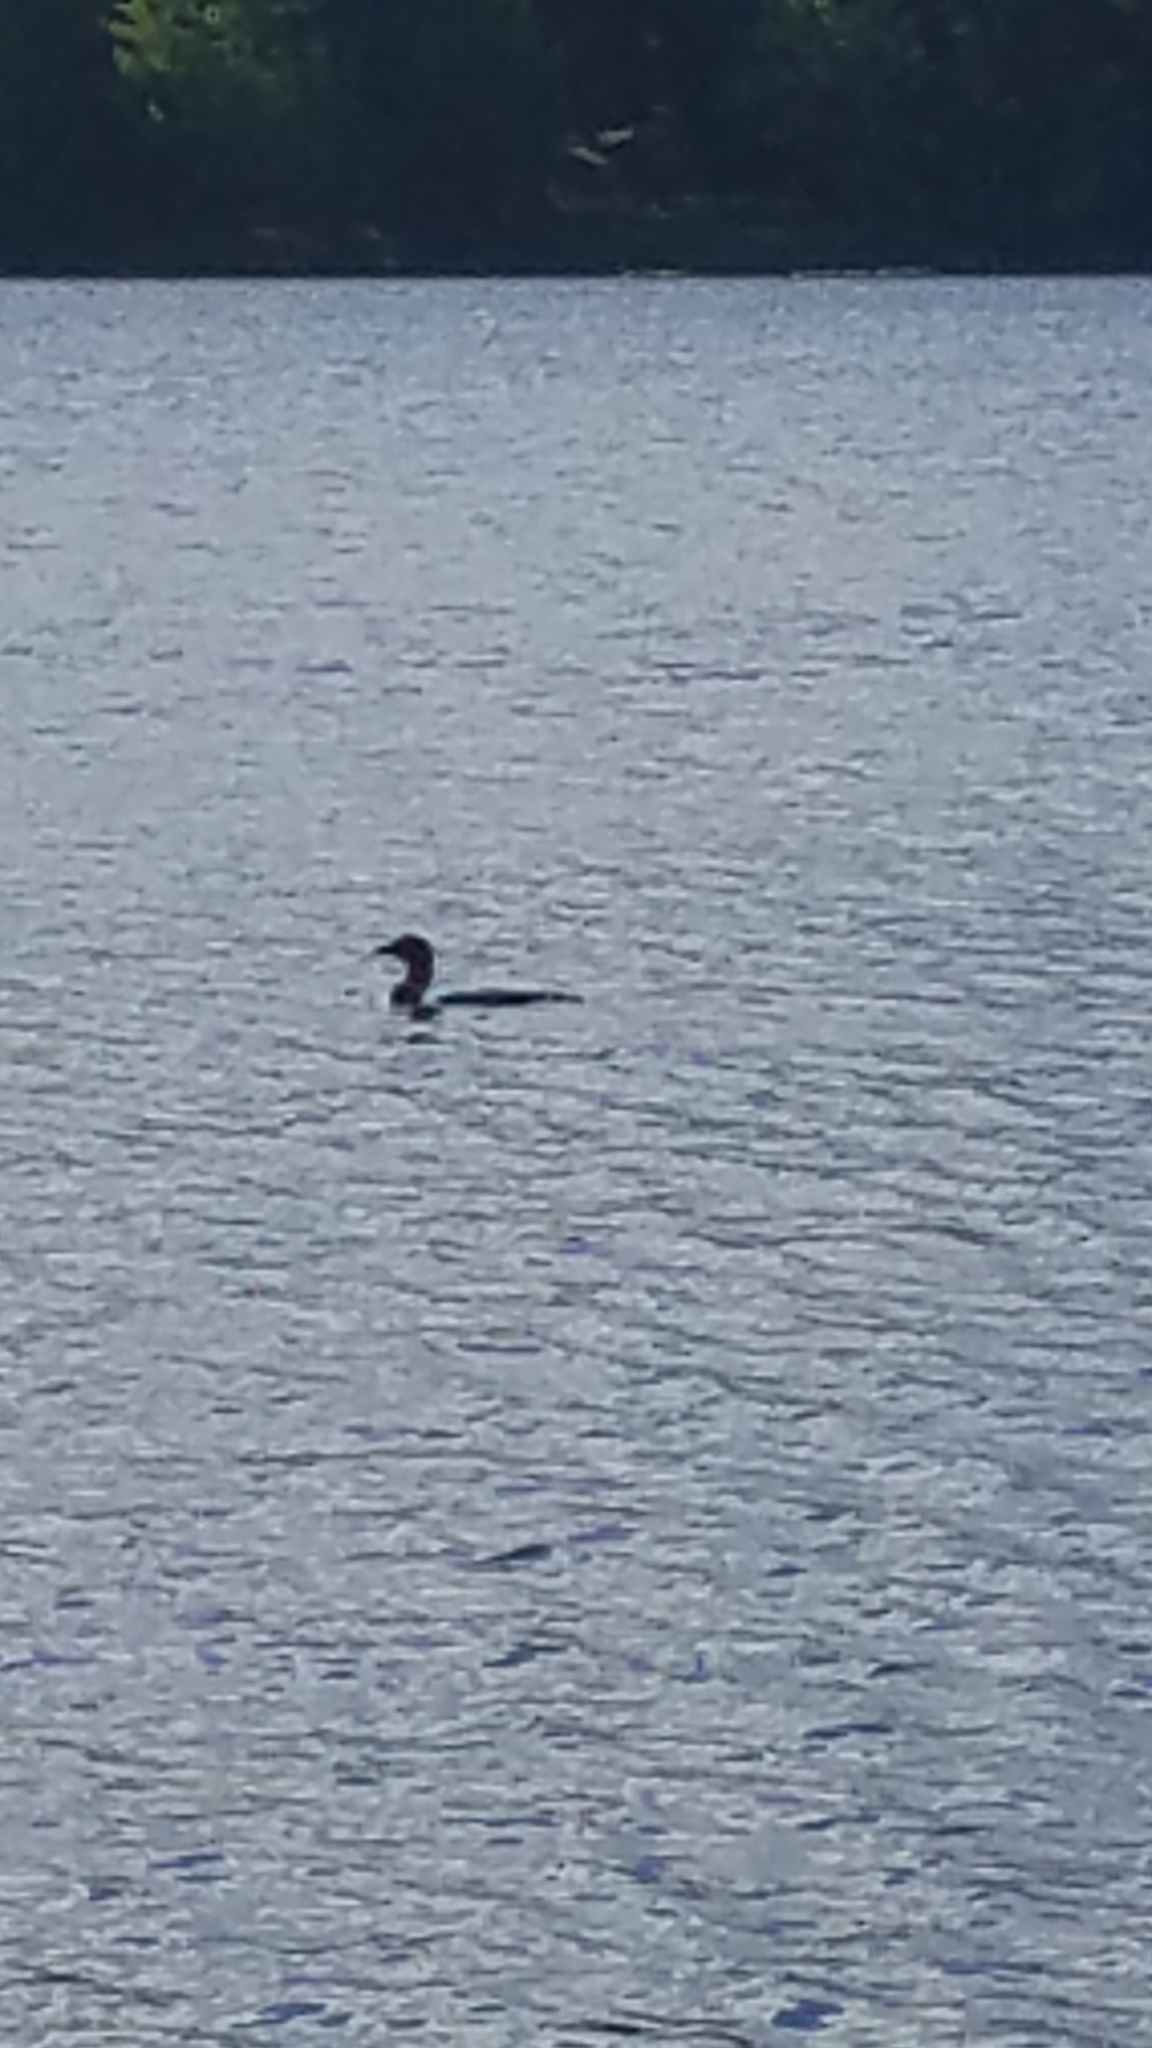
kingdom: Animalia
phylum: Chordata
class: Aves
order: Gaviiformes
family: Gaviidae
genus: Gavia
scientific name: Gavia immer
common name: Common loon
